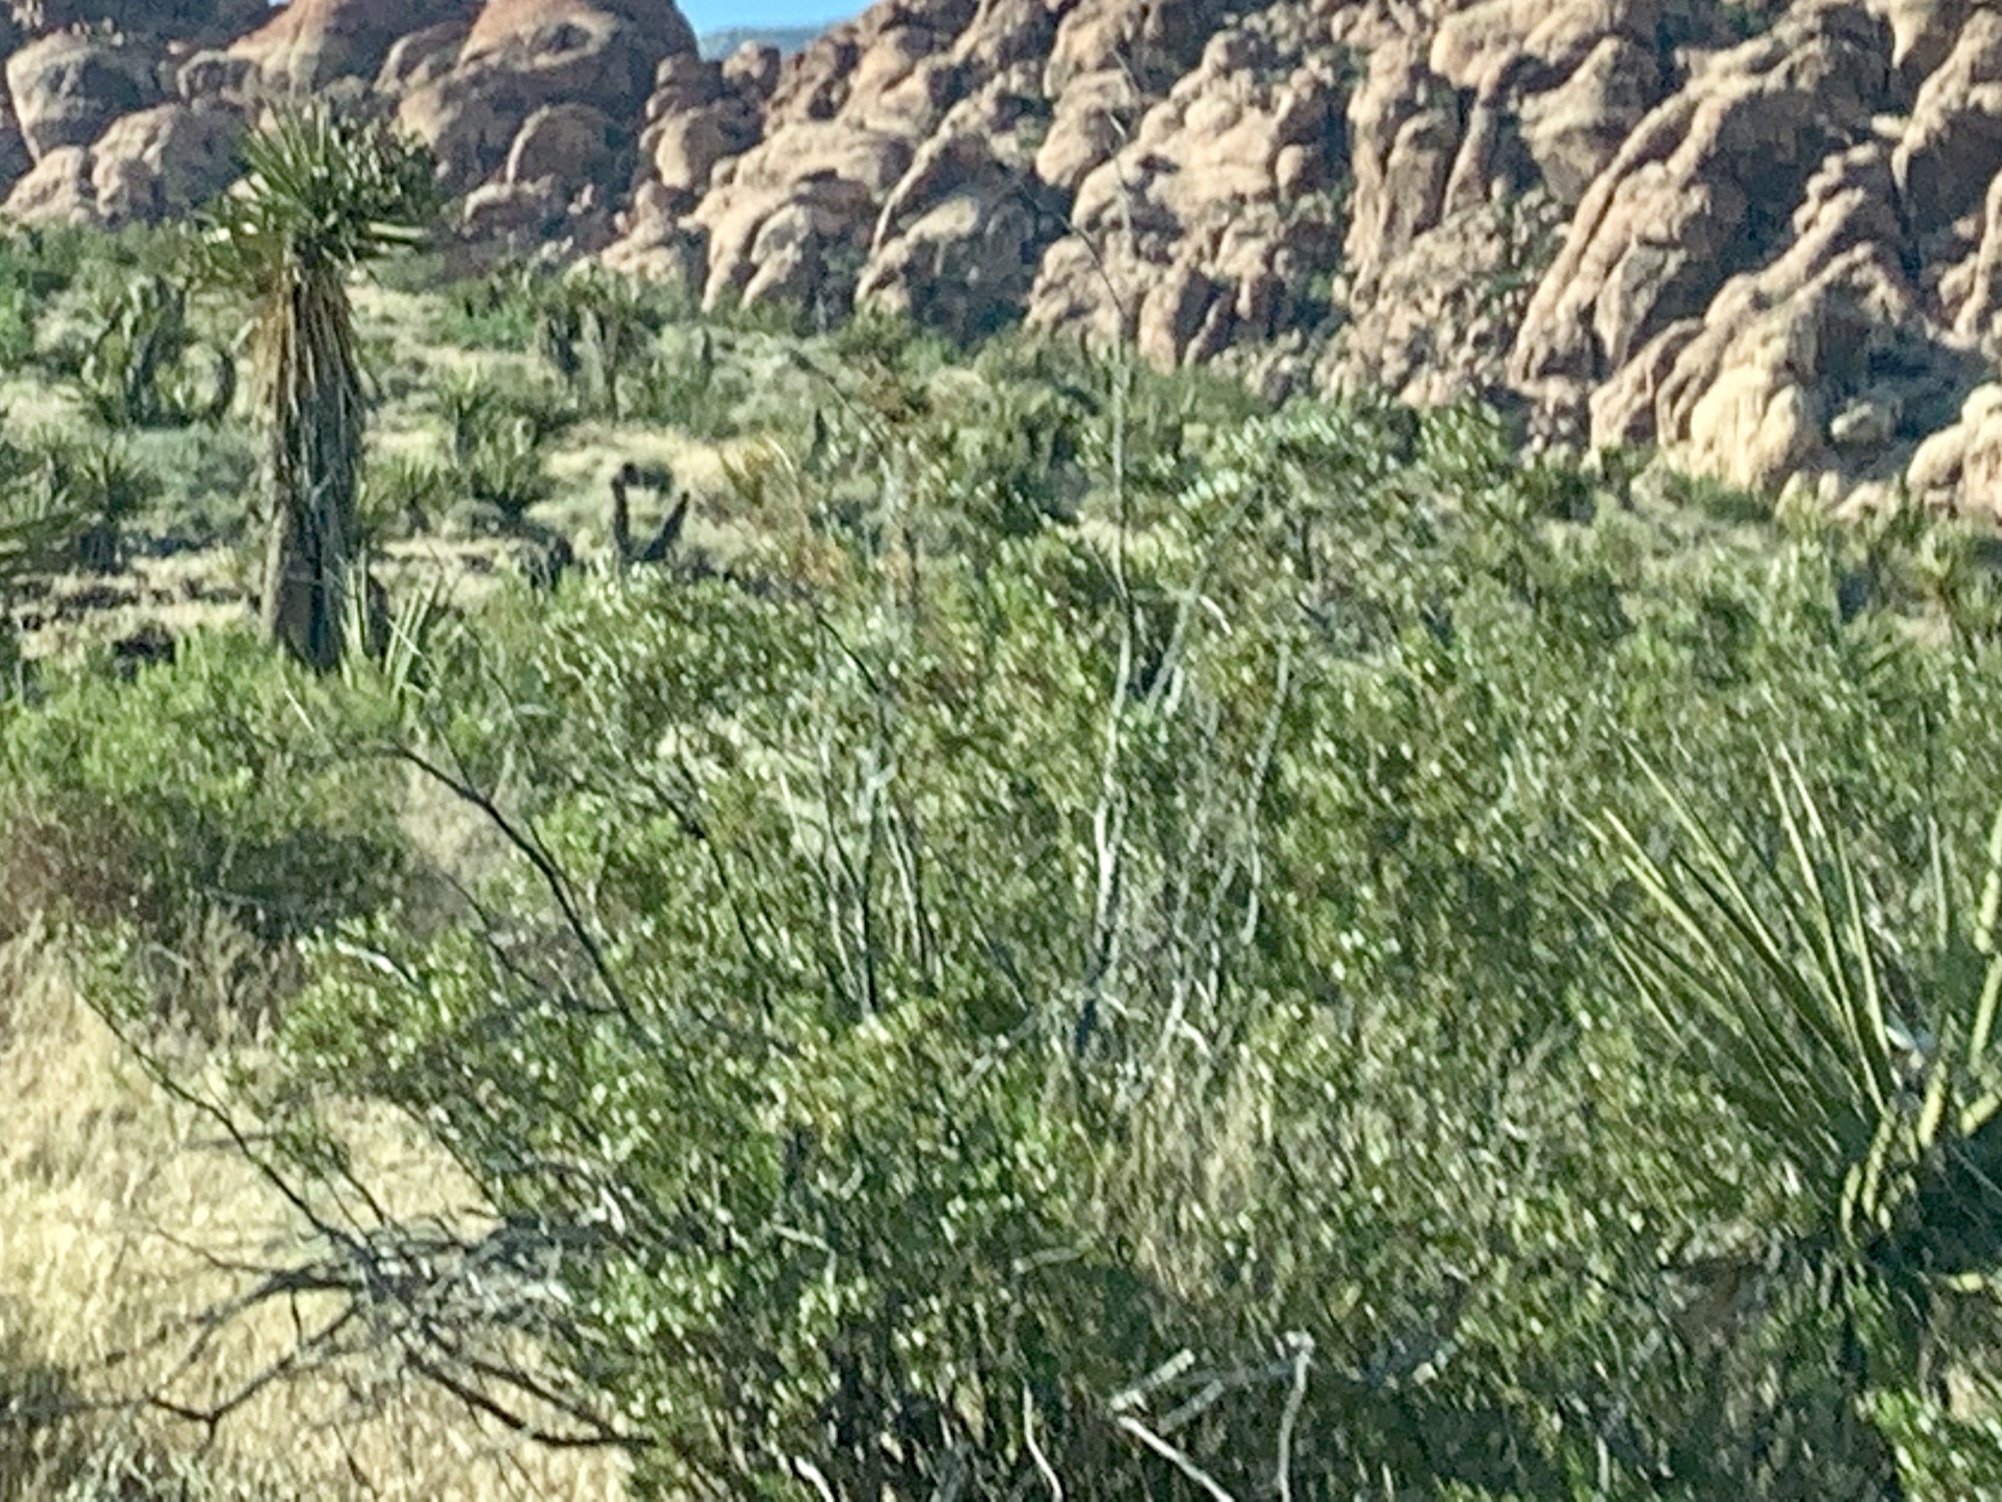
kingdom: Plantae
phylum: Tracheophyta
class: Magnoliopsida
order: Zygophyllales
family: Zygophyllaceae
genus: Larrea
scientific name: Larrea tridentata
